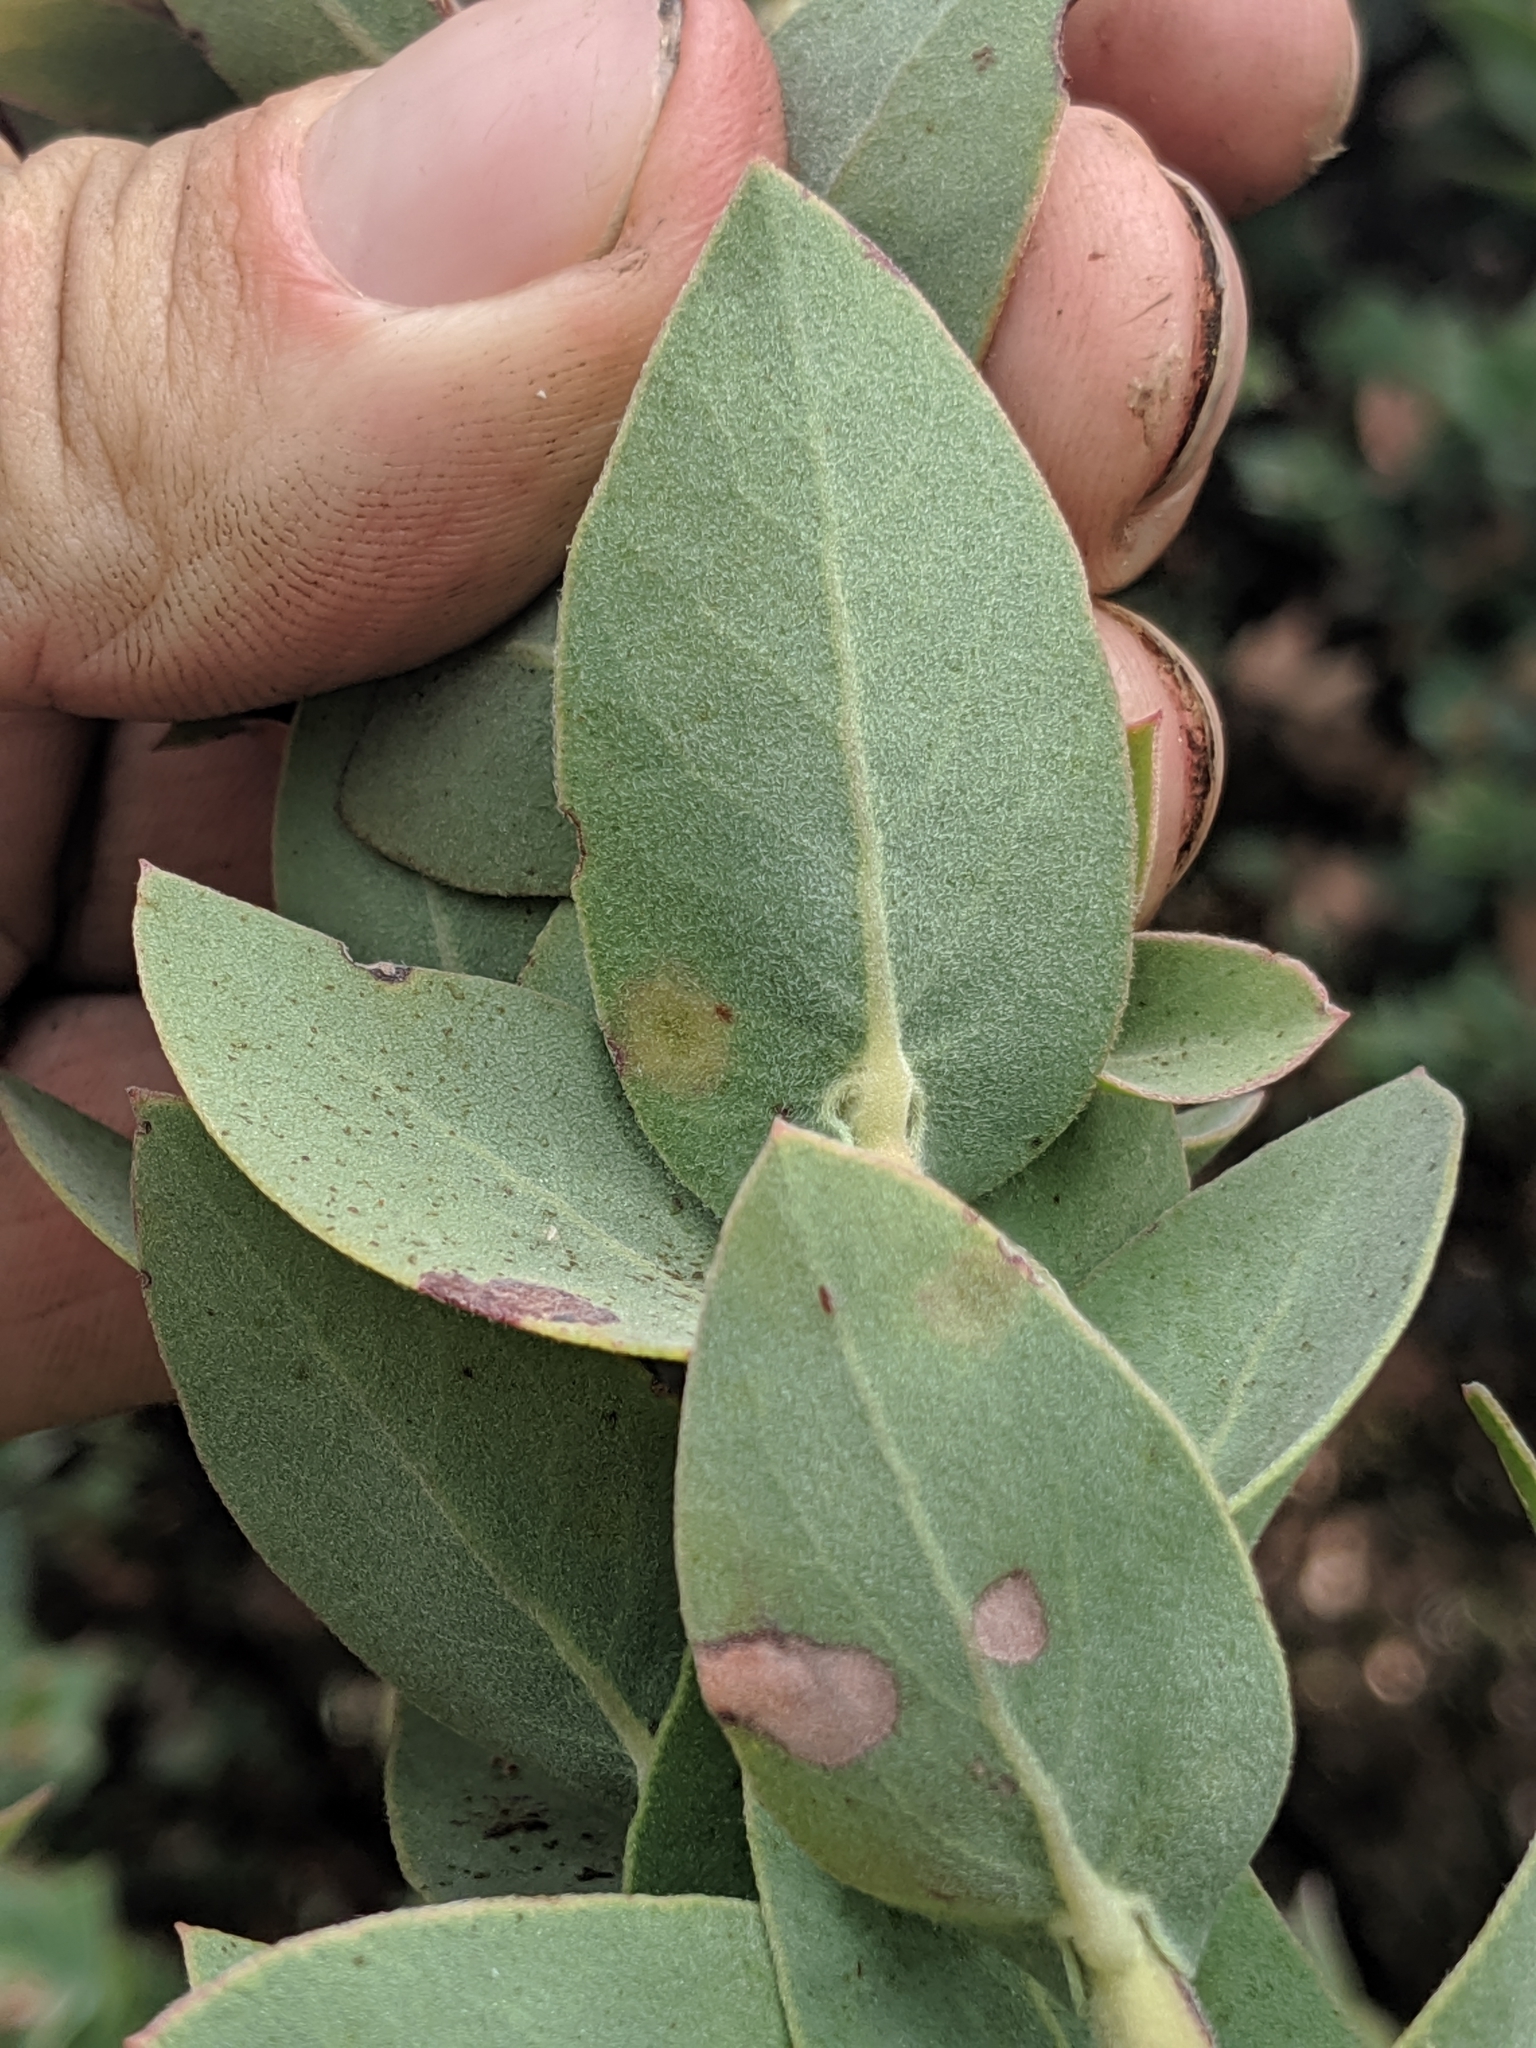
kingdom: Plantae
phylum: Tracheophyta
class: Magnoliopsida
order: Ericales
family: Ericaceae
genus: Arctostaphylos
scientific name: Arctostaphylos luciana
